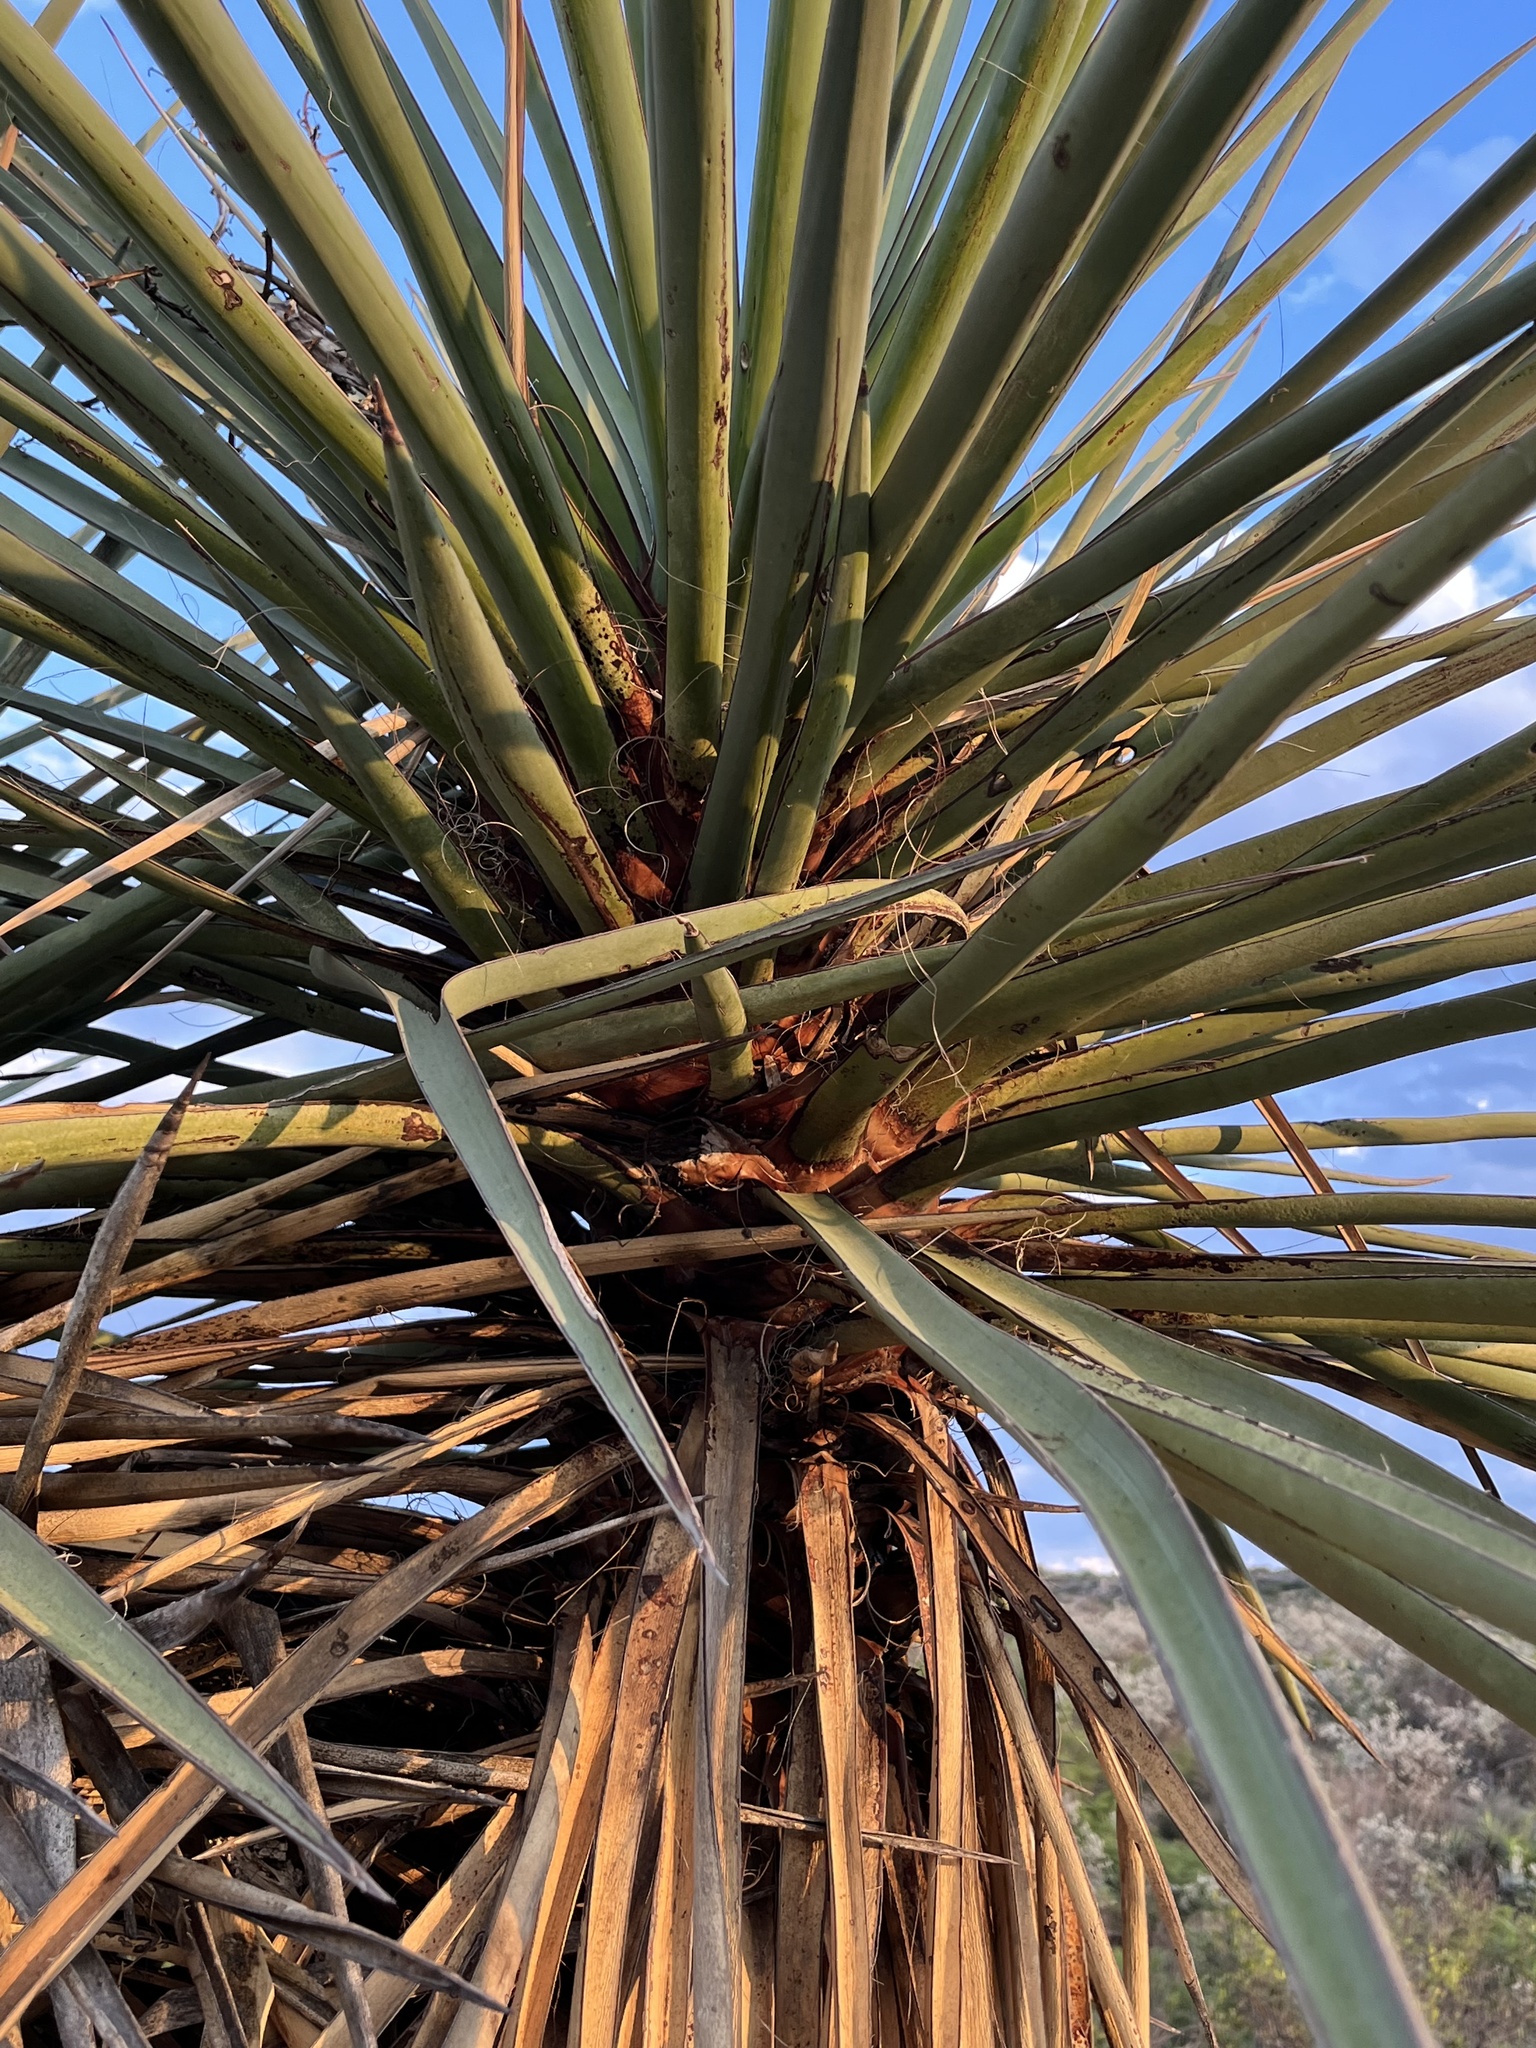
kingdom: Plantae
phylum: Tracheophyta
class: Liliopsida
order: Asparagales
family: Asparagaceae
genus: Yucca
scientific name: Yucca treculiana
